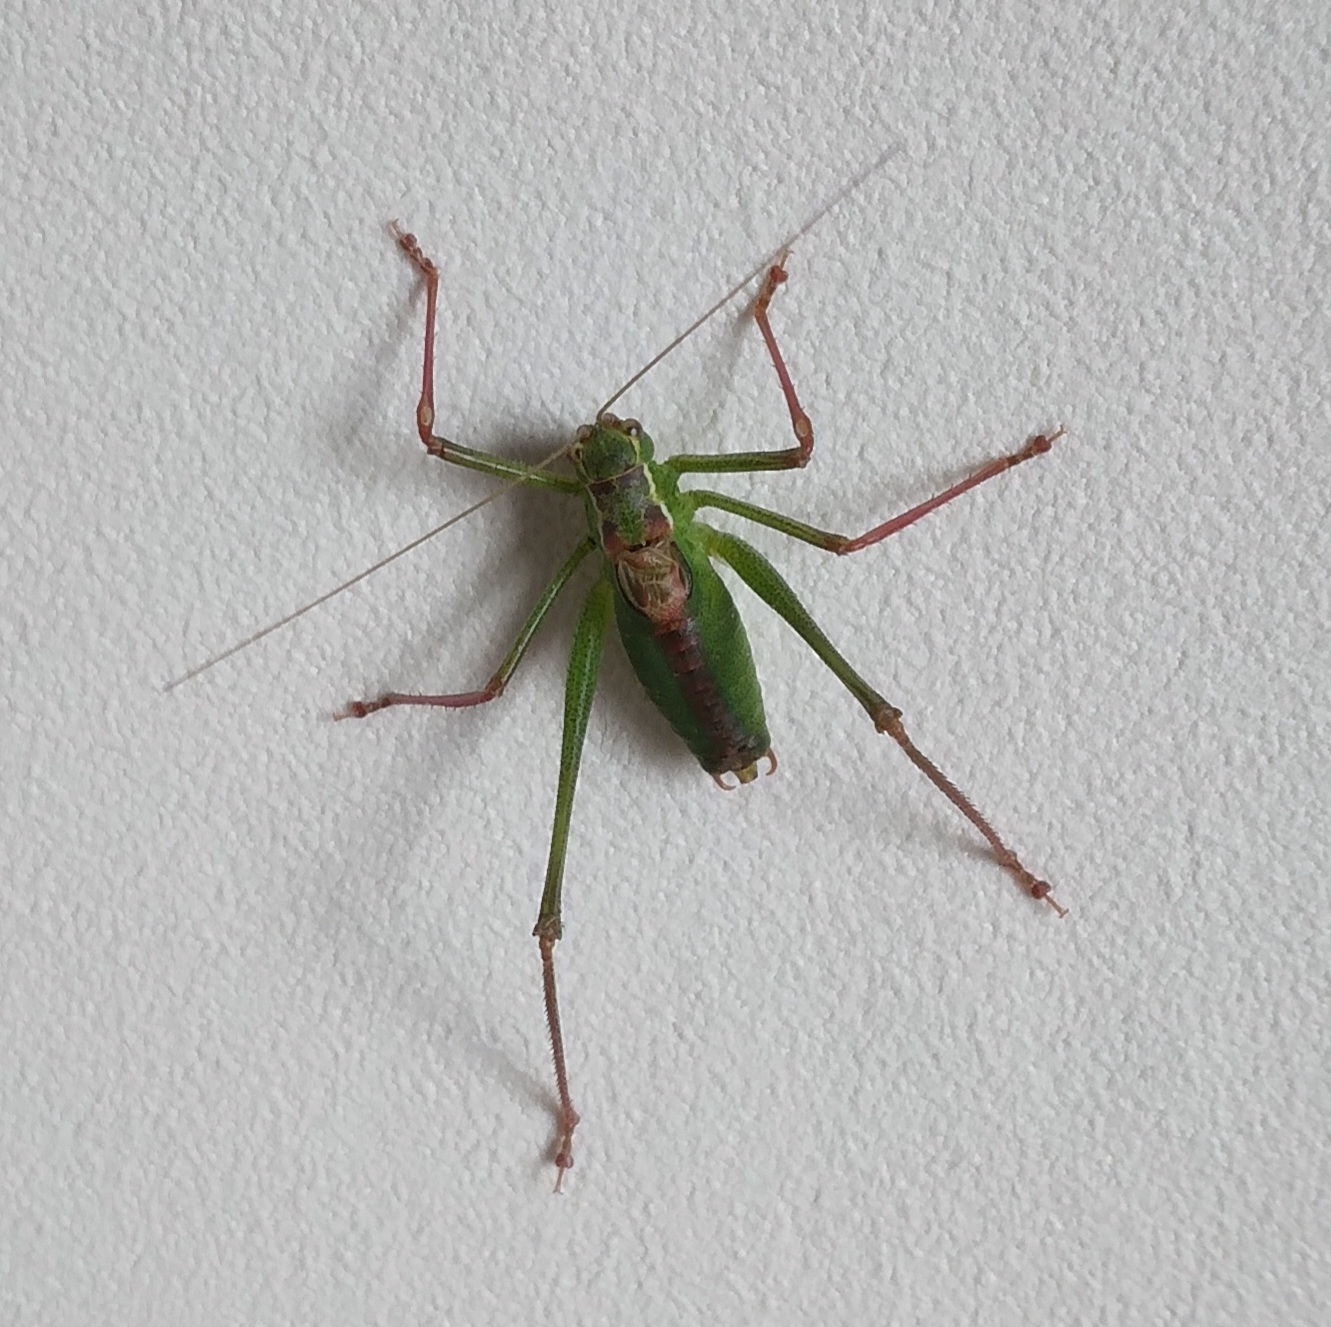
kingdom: Animalia
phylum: Arthropoda
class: Insecta
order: Orthoptera
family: Tettigoniidae
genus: Leptophyes
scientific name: Leptophyes punctatissima
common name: Speckled bush-cricket
